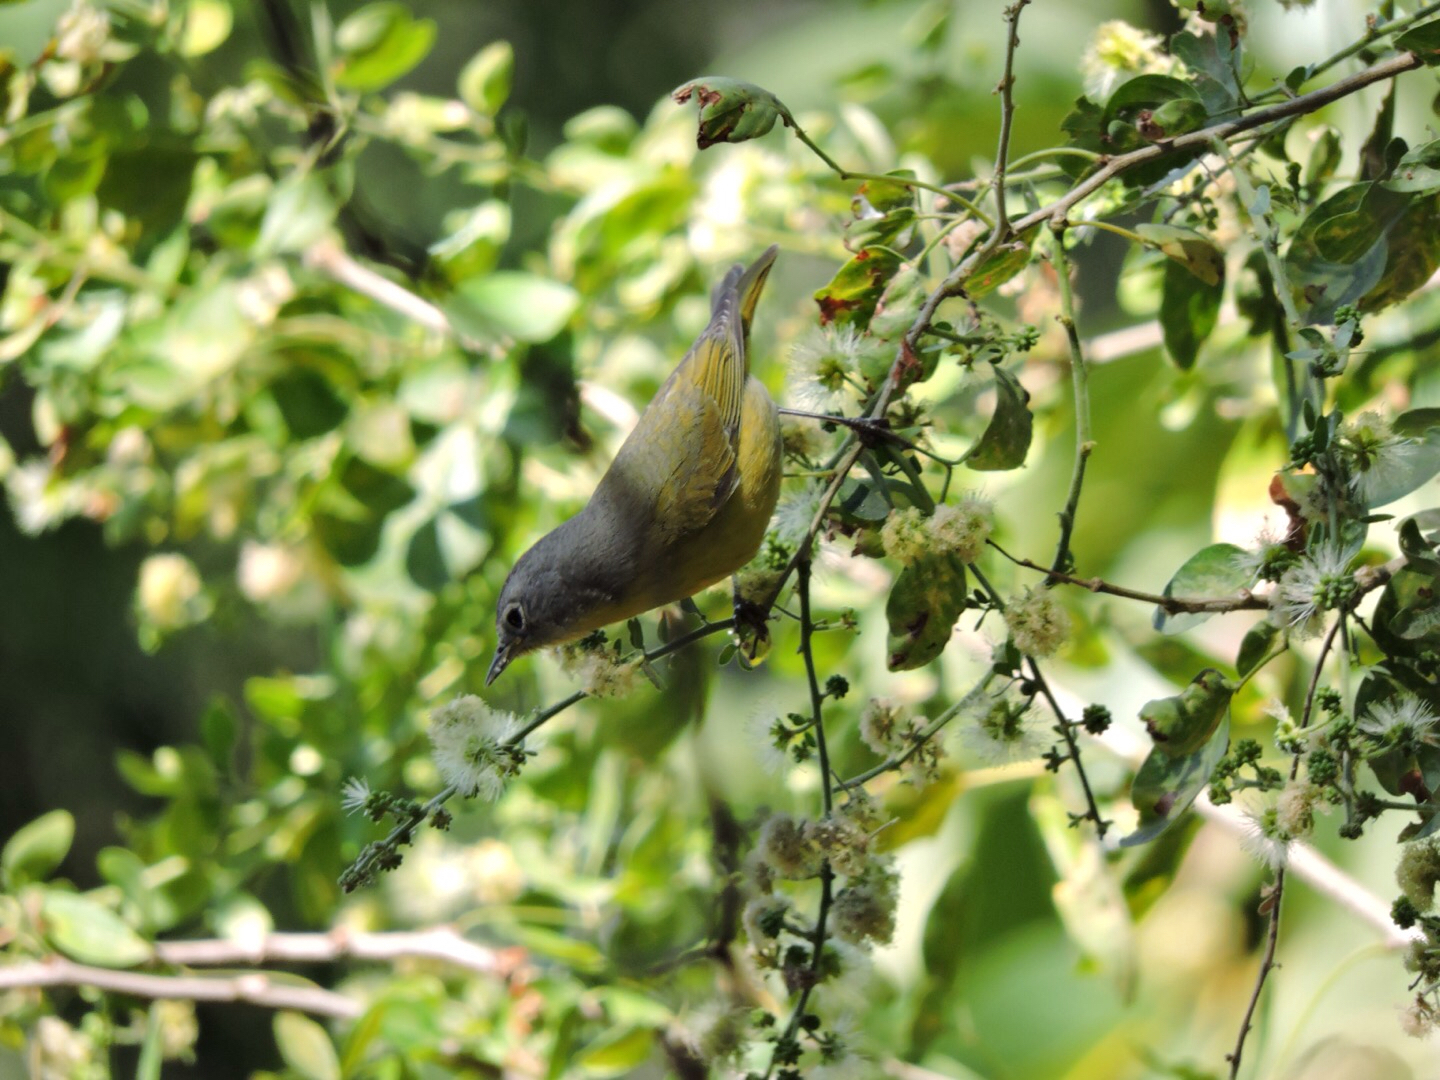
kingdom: Animalia
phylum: Chordata
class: Aves
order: Passeriformes
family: Parulidae
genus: Leiothlypis
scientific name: Leiothlypis ruficapilla
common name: Nashville warbler
